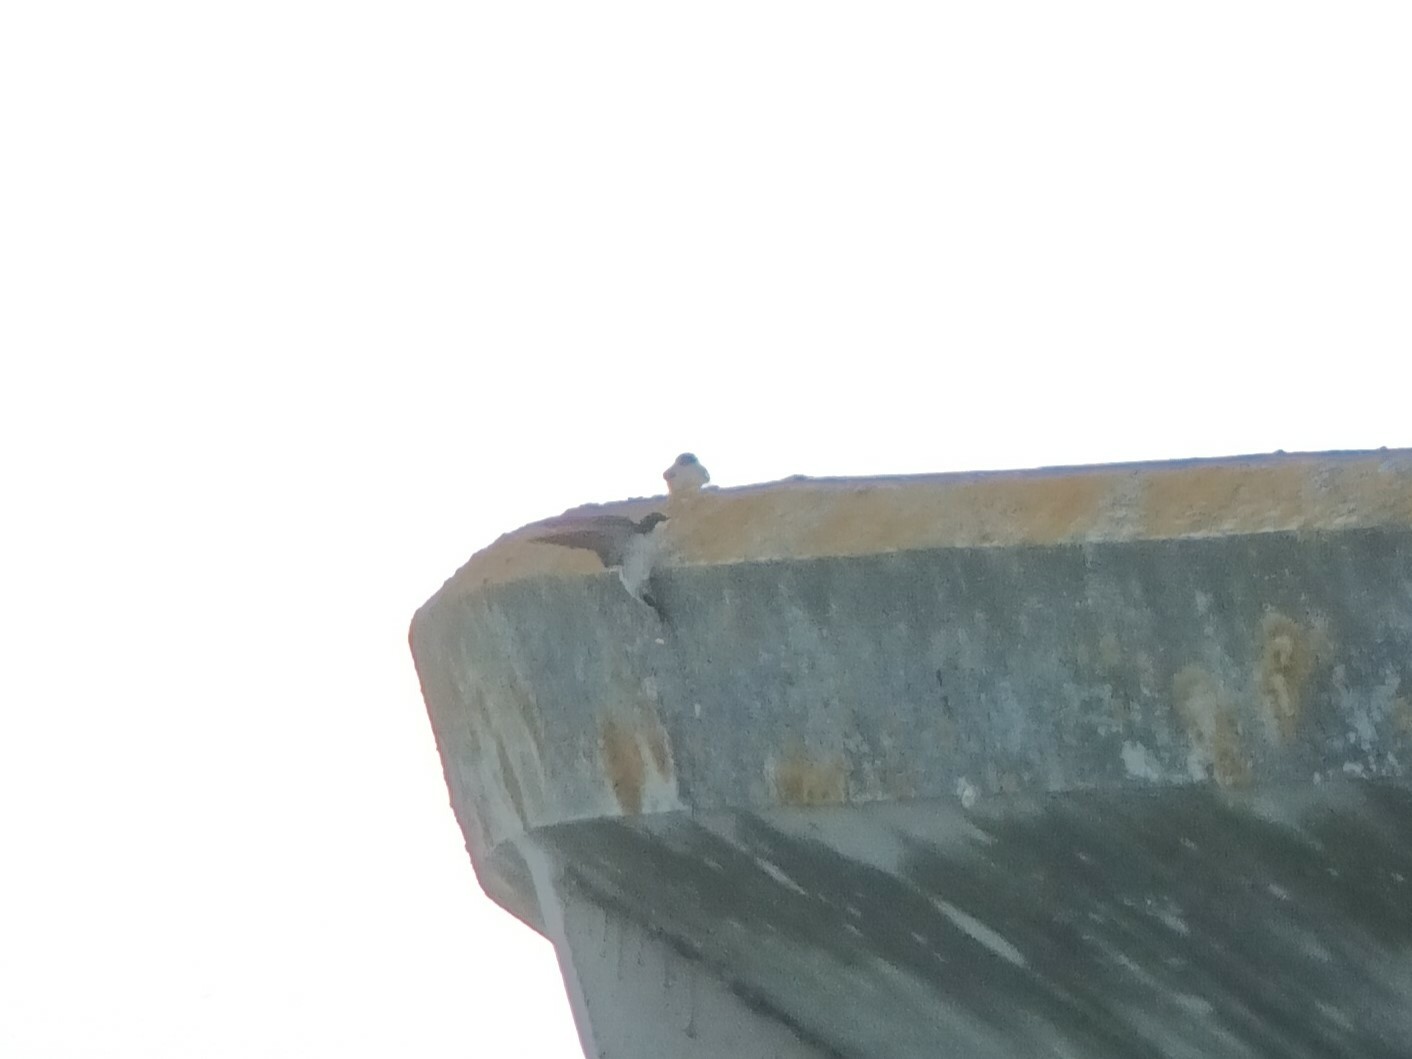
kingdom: Animalia
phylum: Chordata
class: Aves
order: Passeriformes
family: Hirundinidae
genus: Delichon
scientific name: Delichon urbicum
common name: Common house martin
